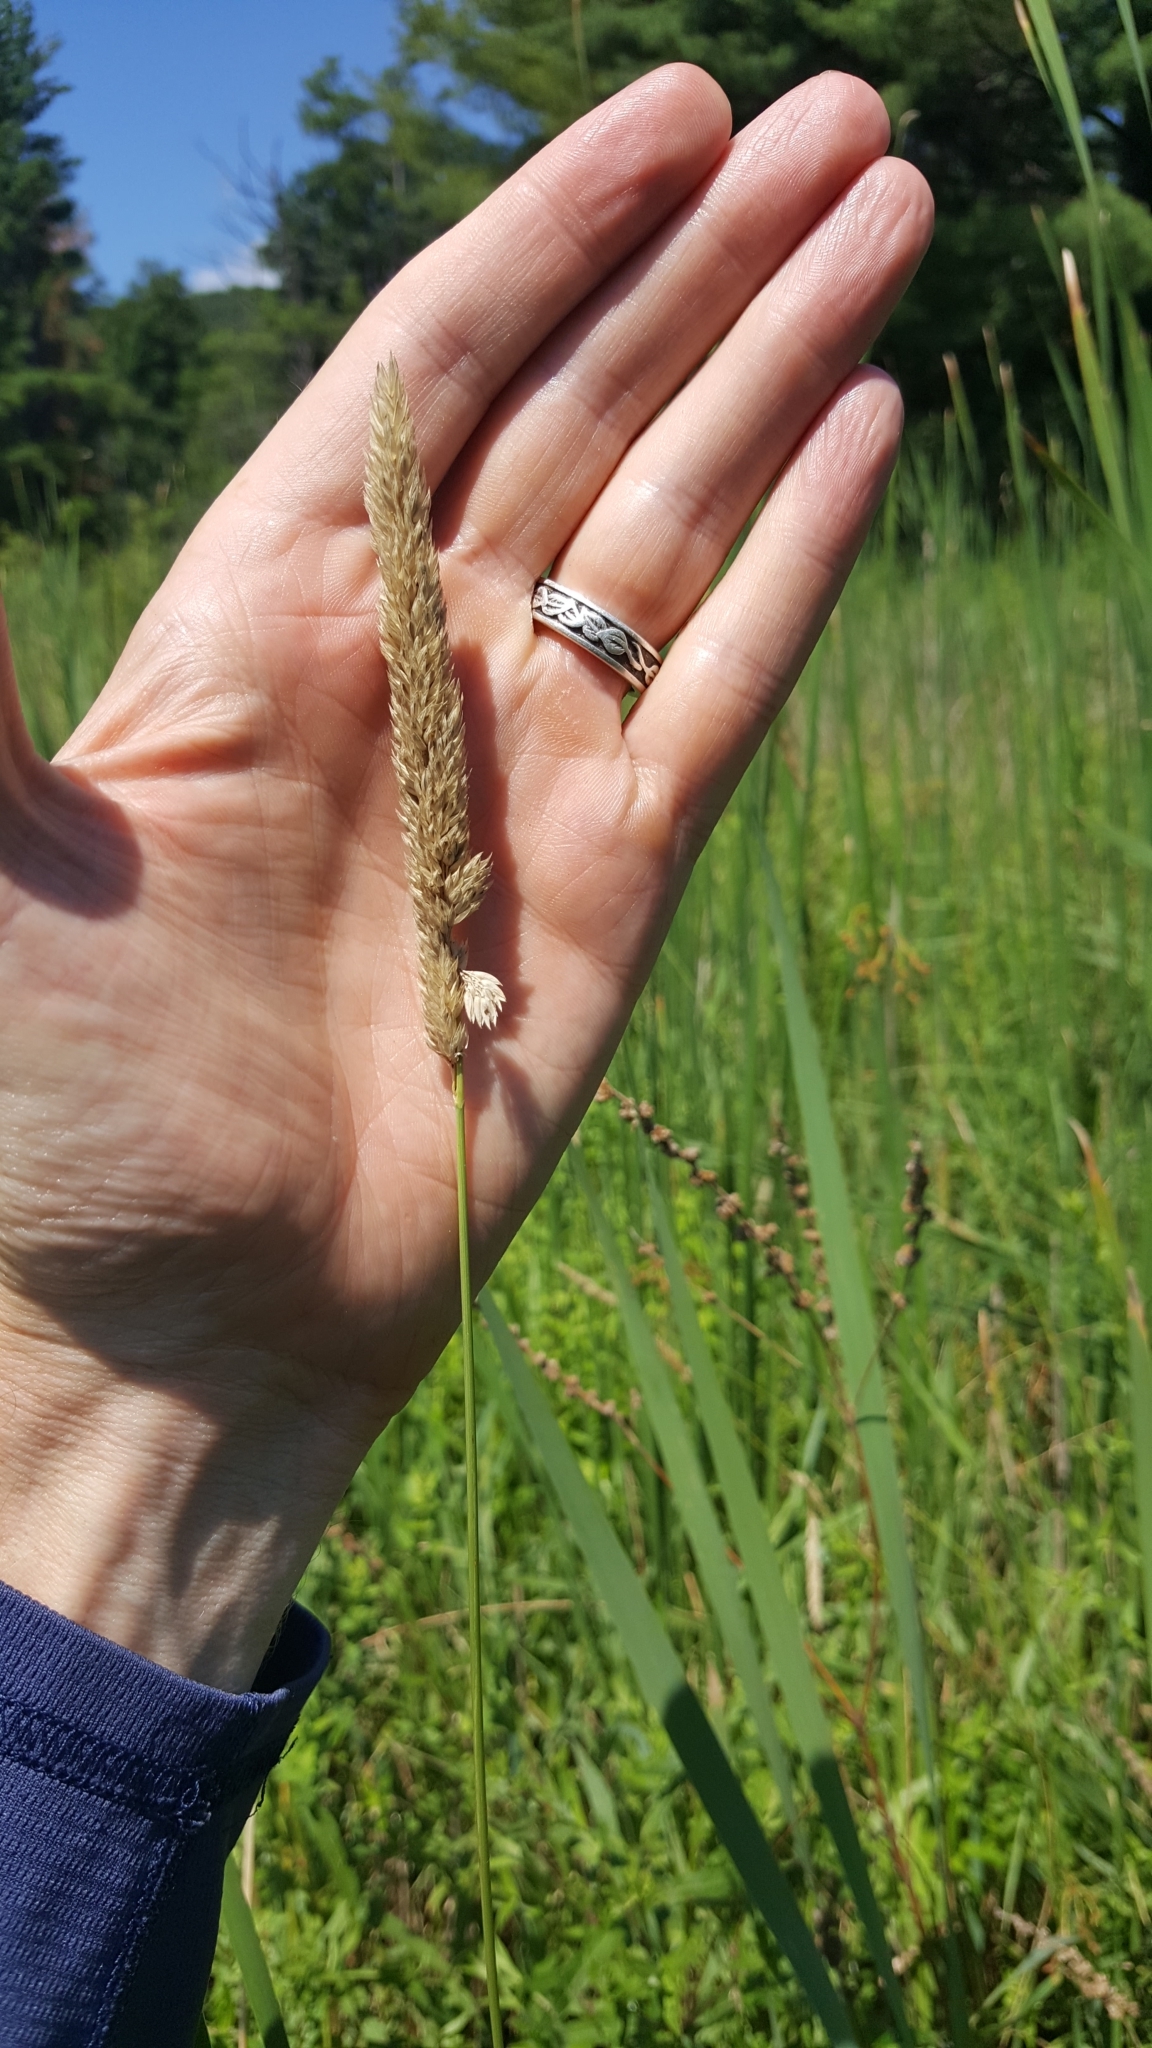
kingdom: Plantae
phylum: Tracheophyta
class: Liliopsida
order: Poales
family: Poaceae
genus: Phalaris
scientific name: Phalaris arundinacea
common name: Reed canary-grass
